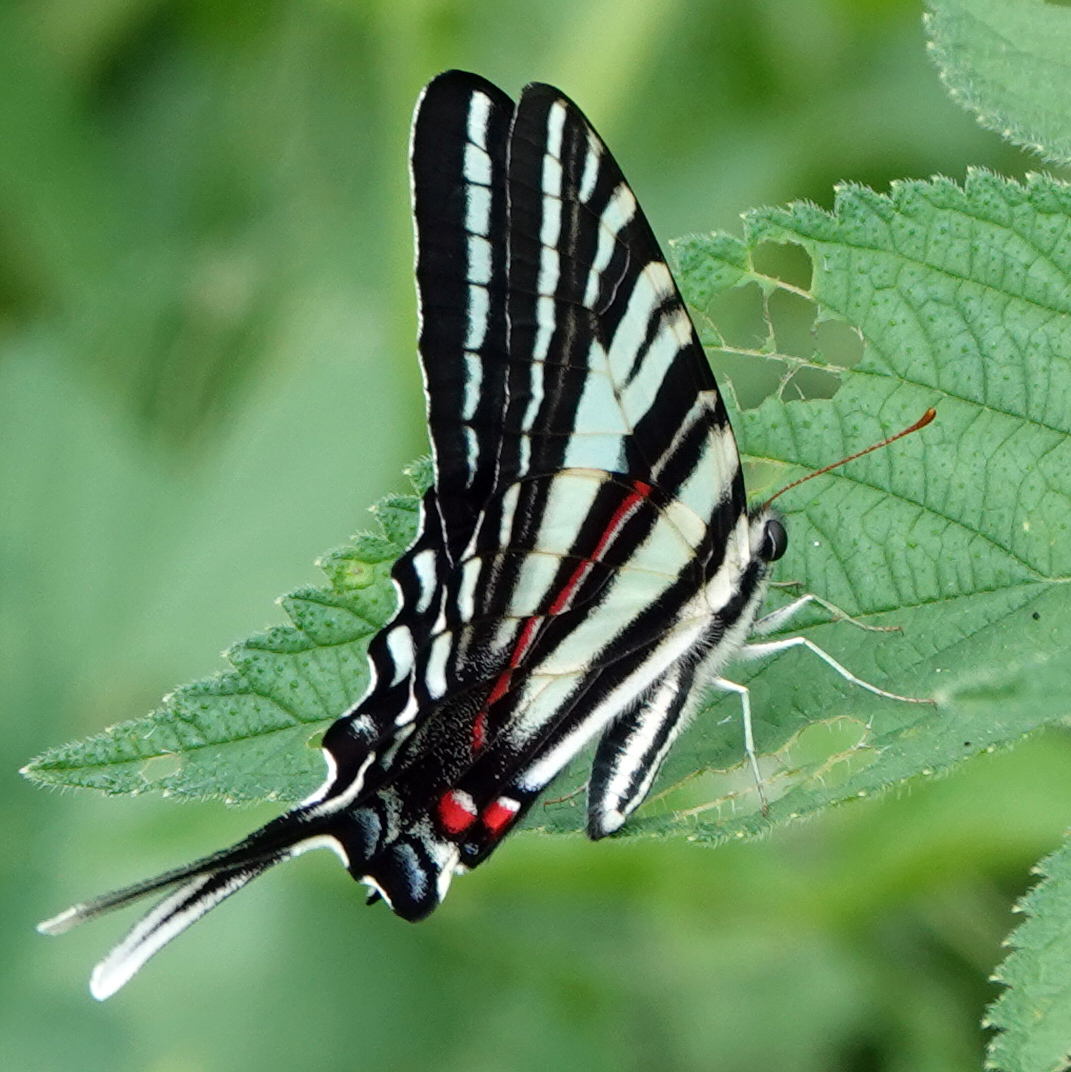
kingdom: Animalia
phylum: Arthropoda
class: Insecta
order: Lepidoptera
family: Papilionidae
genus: Protographium
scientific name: Protographium marcellus
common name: Zebra swallowtail
